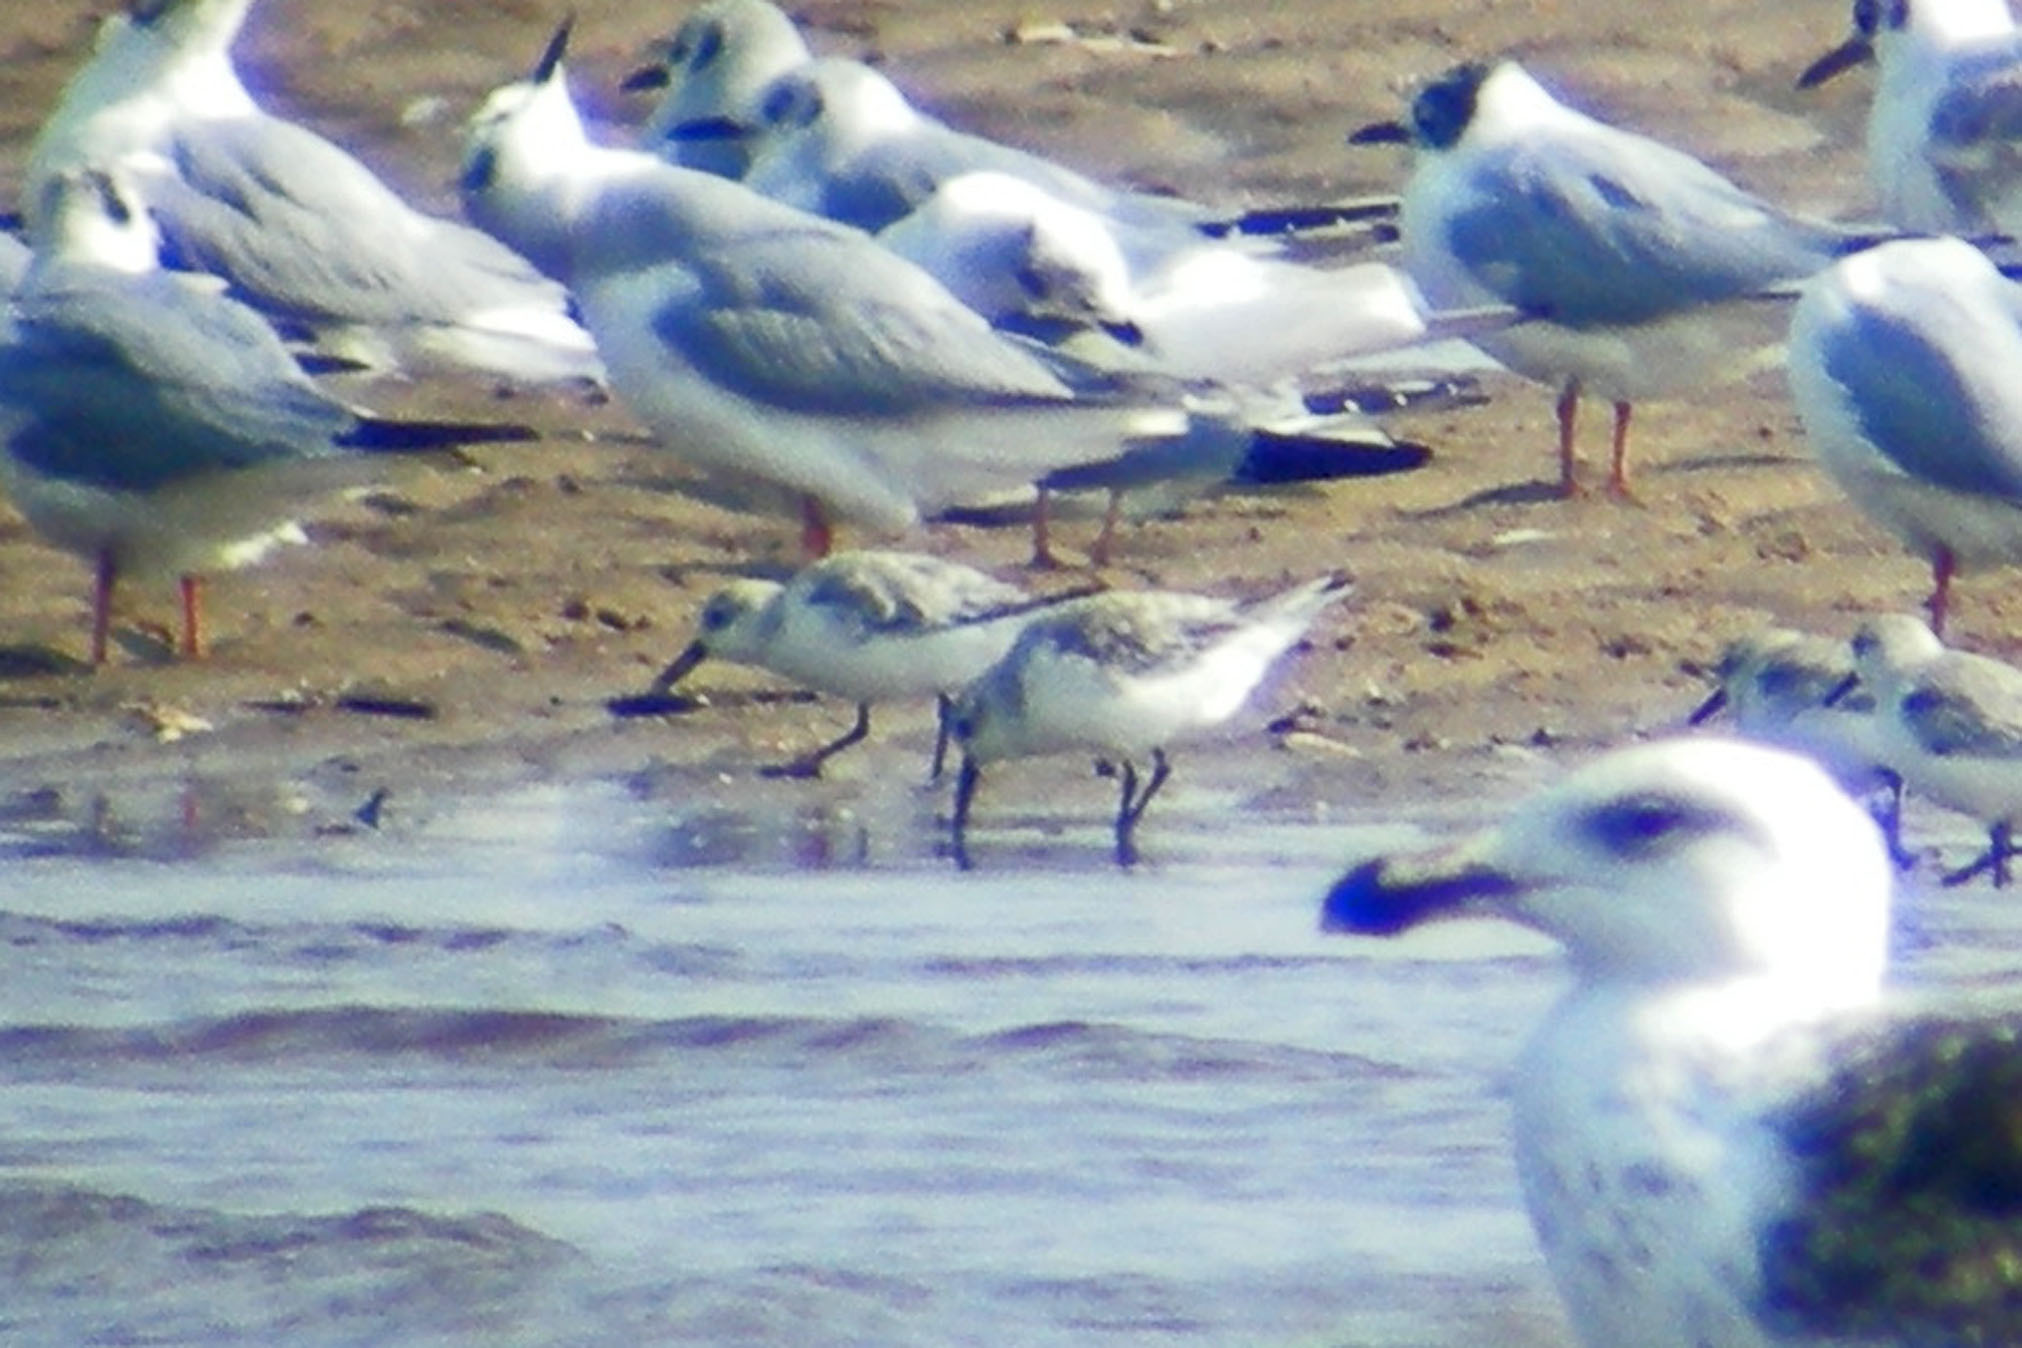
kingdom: Animalia
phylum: Chordata
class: Aves
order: Charadriiformes
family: Scolopacidae
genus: Calidris
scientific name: Calidris alba
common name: Sanderling
